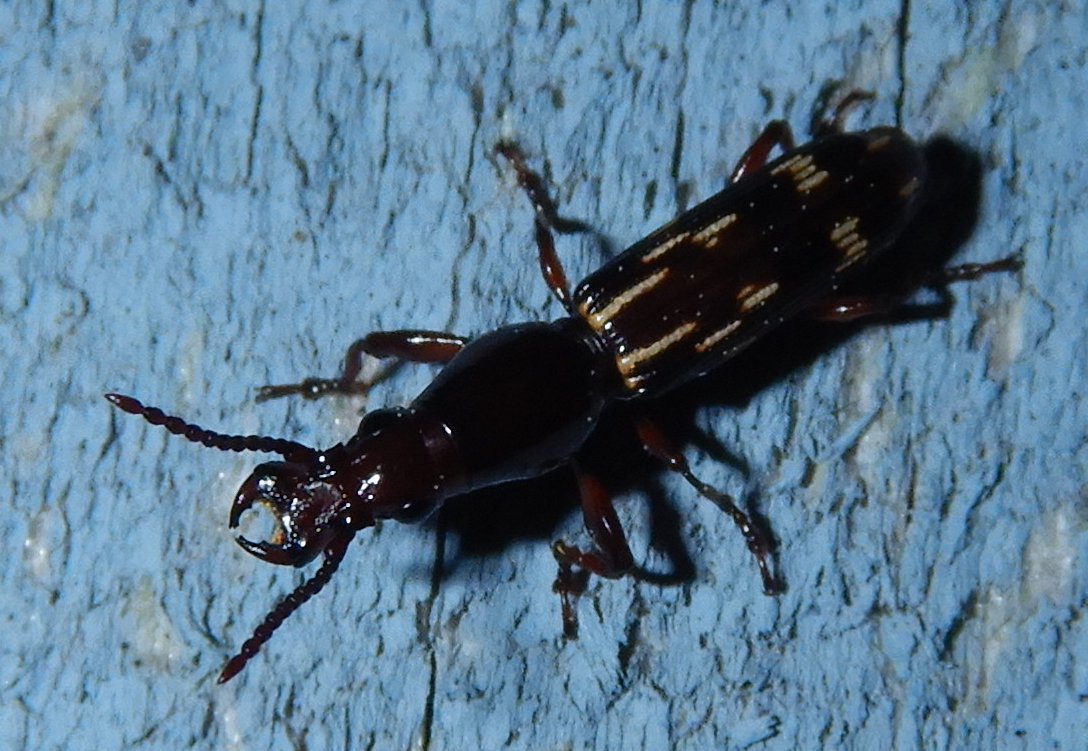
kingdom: Animalia
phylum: Arthropoda
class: Insecta
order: Coleoptera
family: Brentidae
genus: Arrenodes
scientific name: Arrenodes minutus
